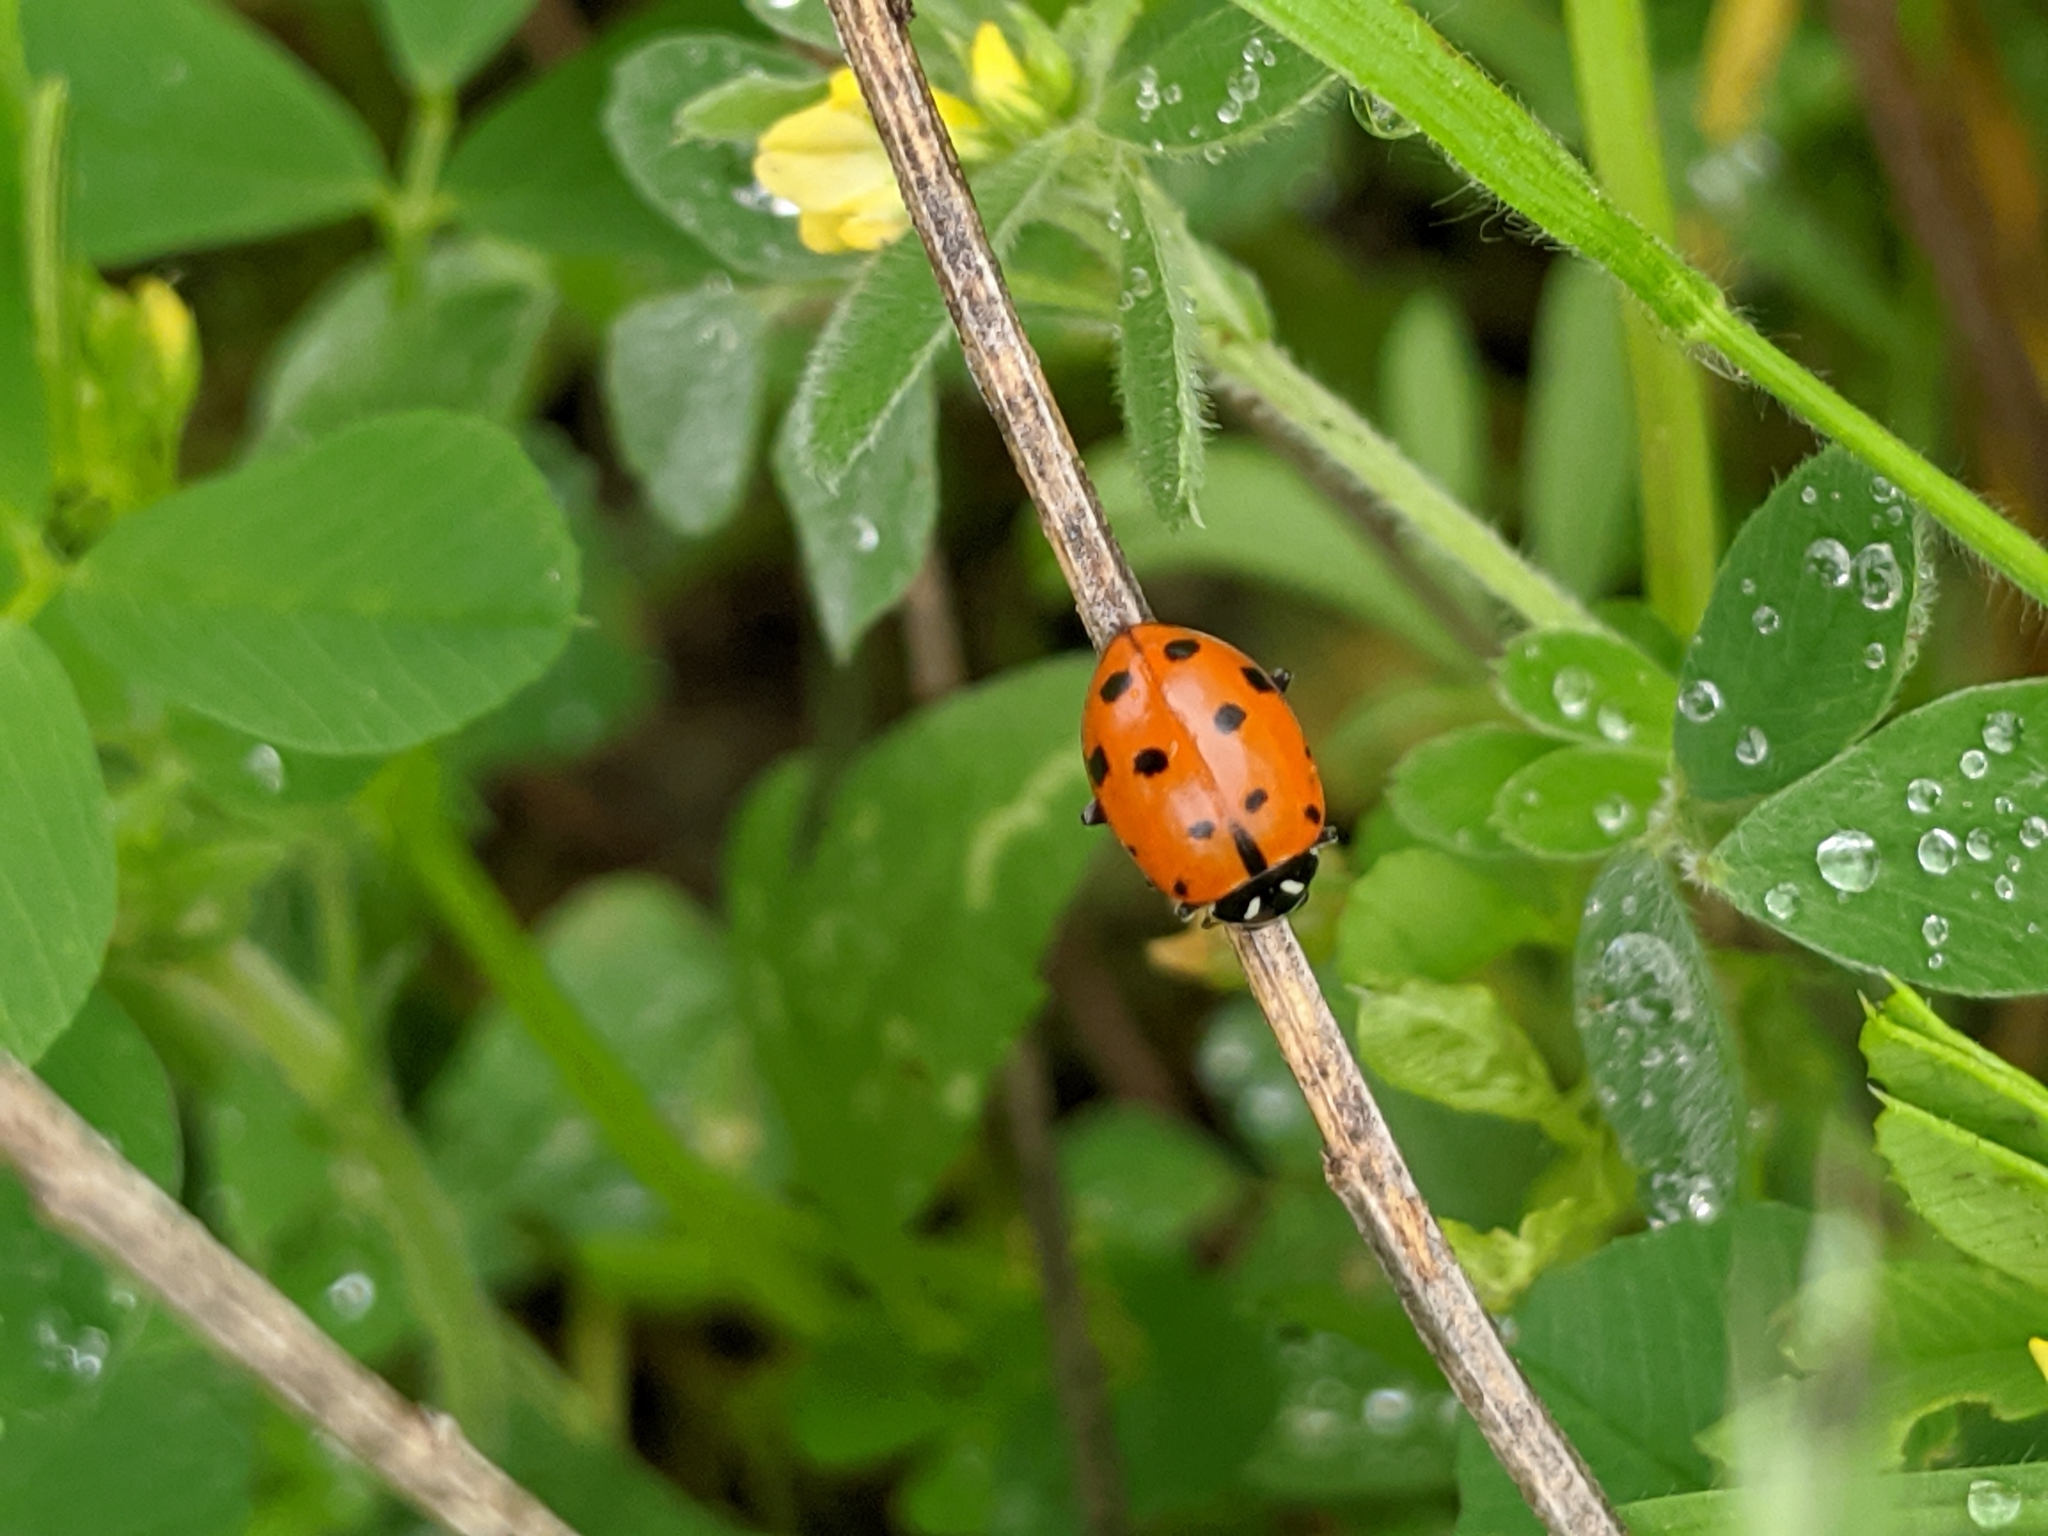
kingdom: Animalia
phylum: Arthropoda
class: Insecta
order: Coleoptera
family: Coccinellidae
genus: Hippodamia
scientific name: Hippodamia convergens
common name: Convergent lady beetle
